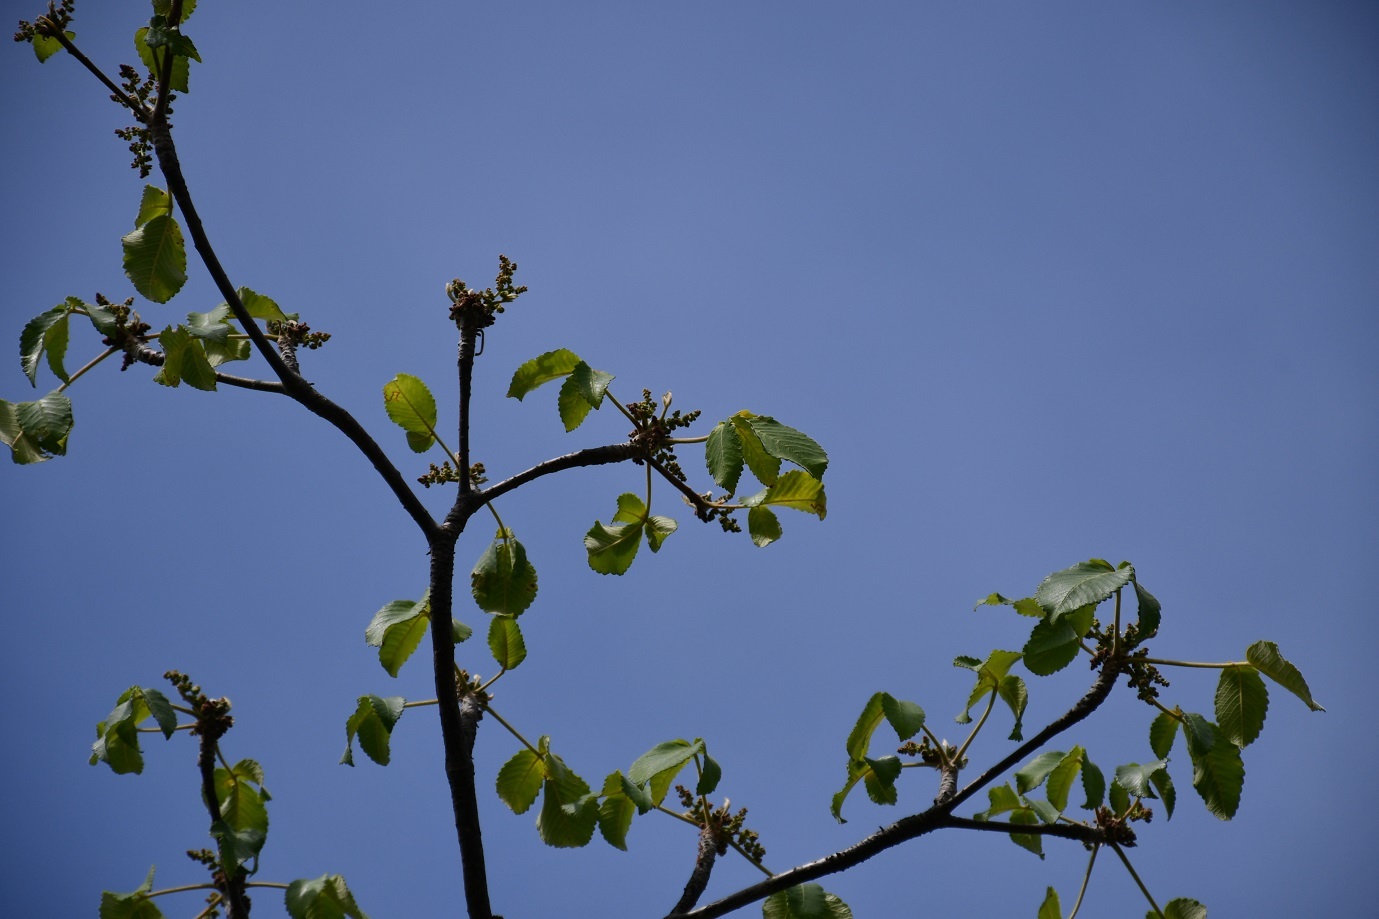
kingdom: Plantae
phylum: Tracheophyta
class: Magnoliopsida
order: Sapindales
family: Anacardiaceae
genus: Amphipterygium
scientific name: Amphipterygium simplicifolium
